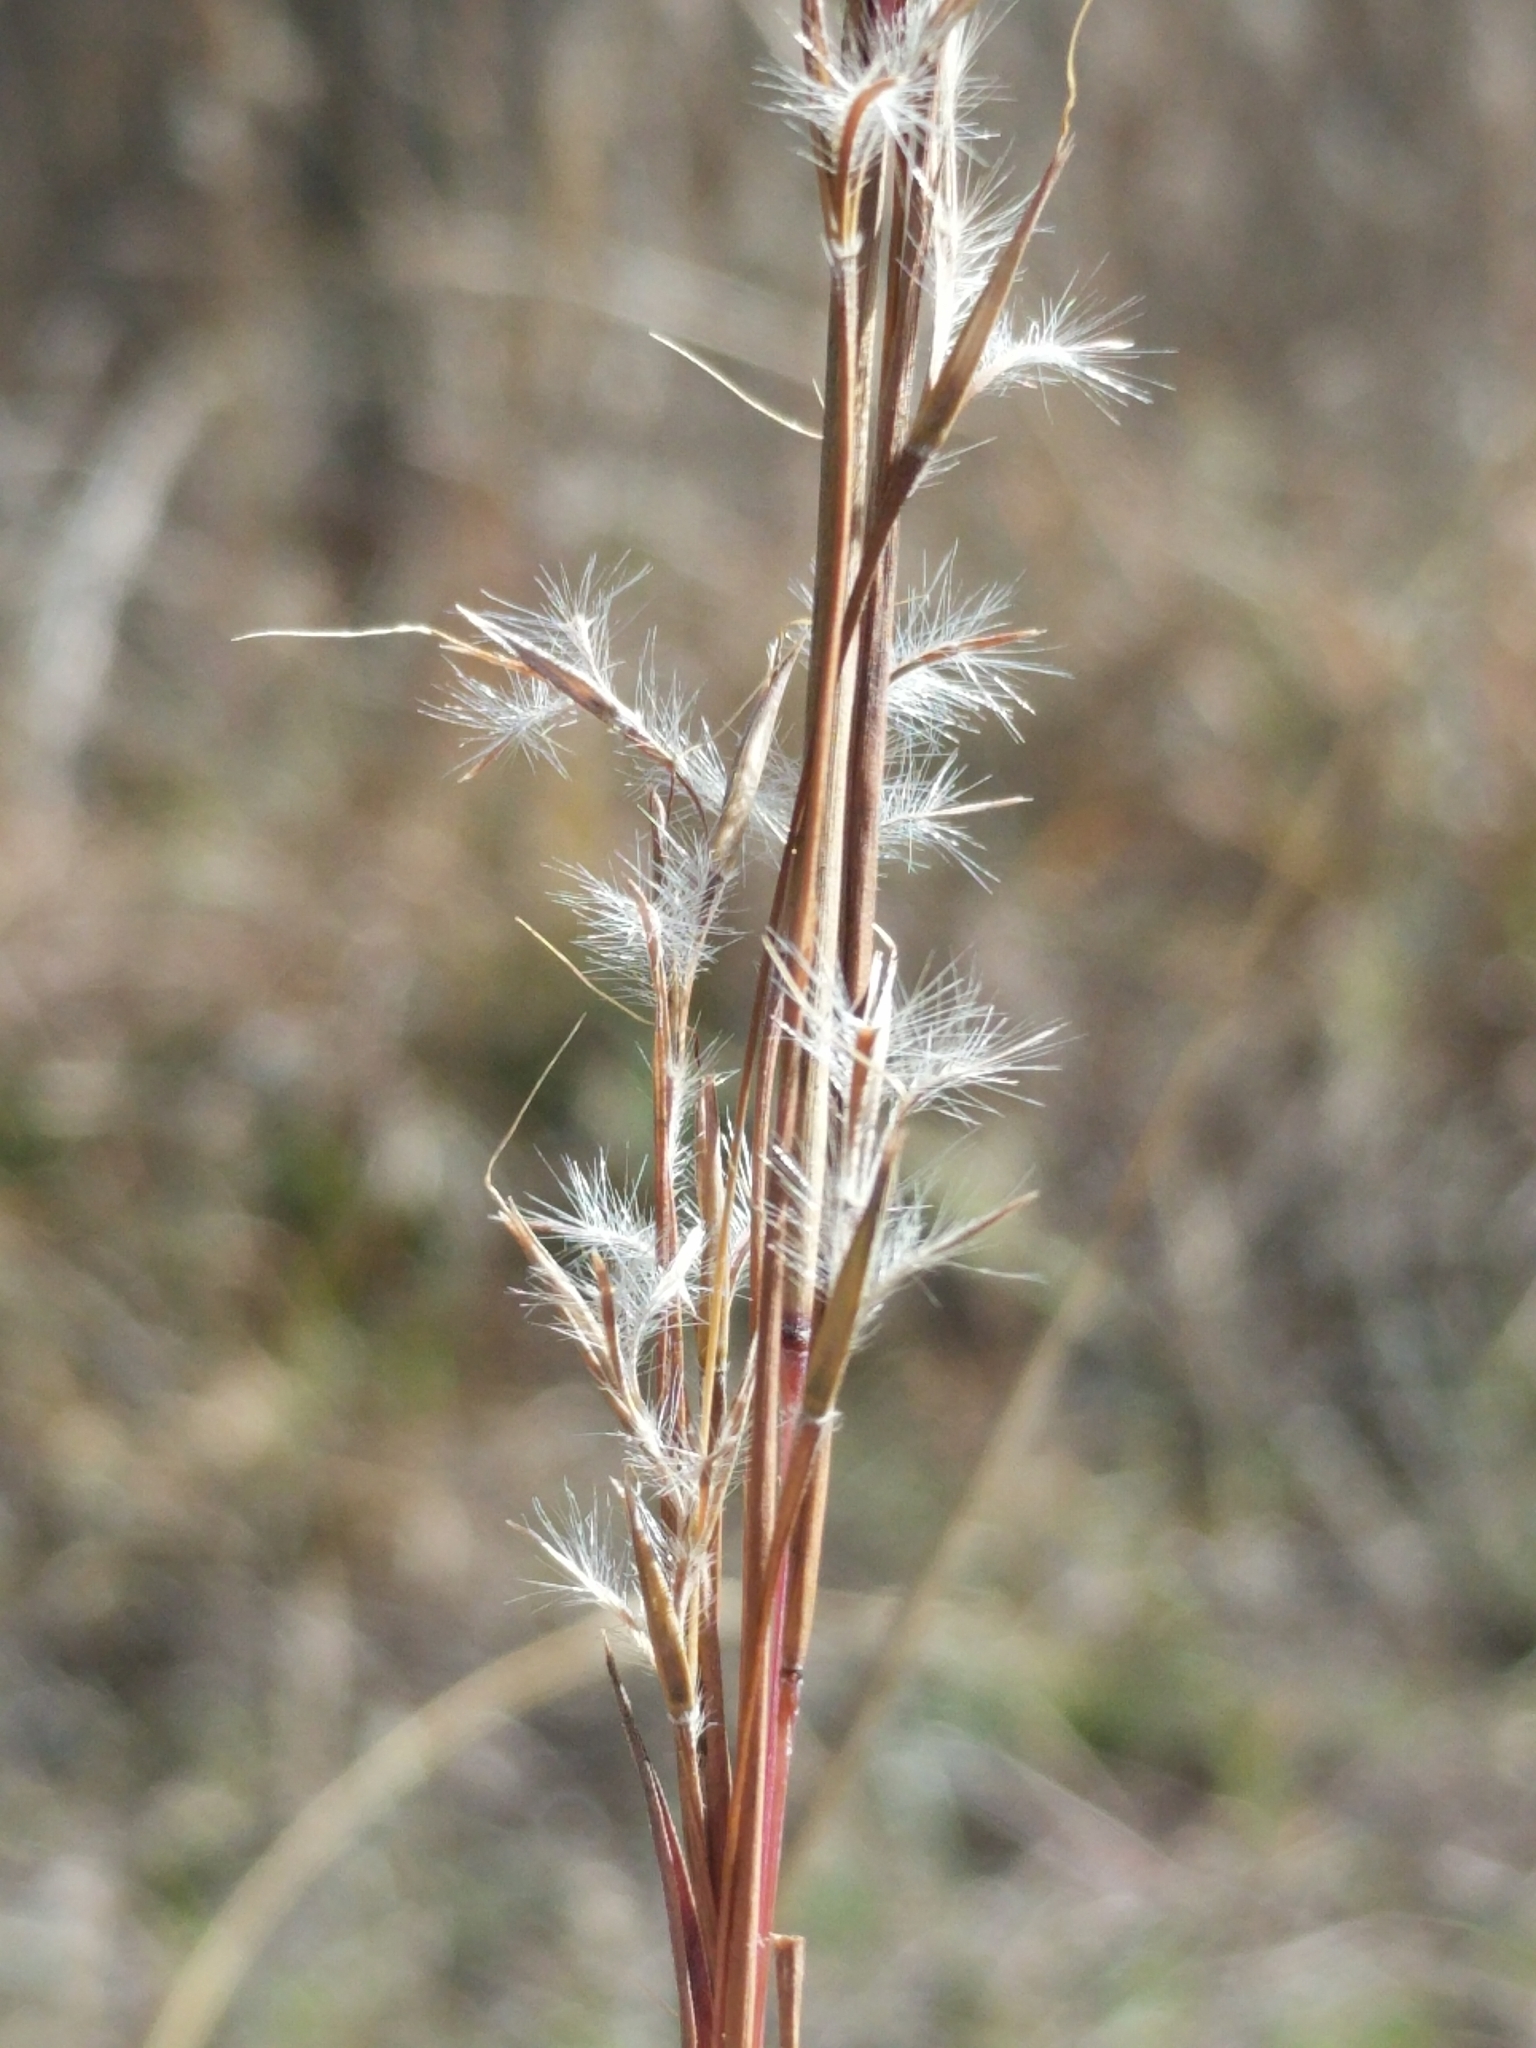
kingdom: Plantae
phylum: Tracheophyta
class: Liliopsida
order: Poales
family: Poaceae
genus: Schizachyrium
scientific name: Schizachyrium scoparium
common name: Little bluestem
